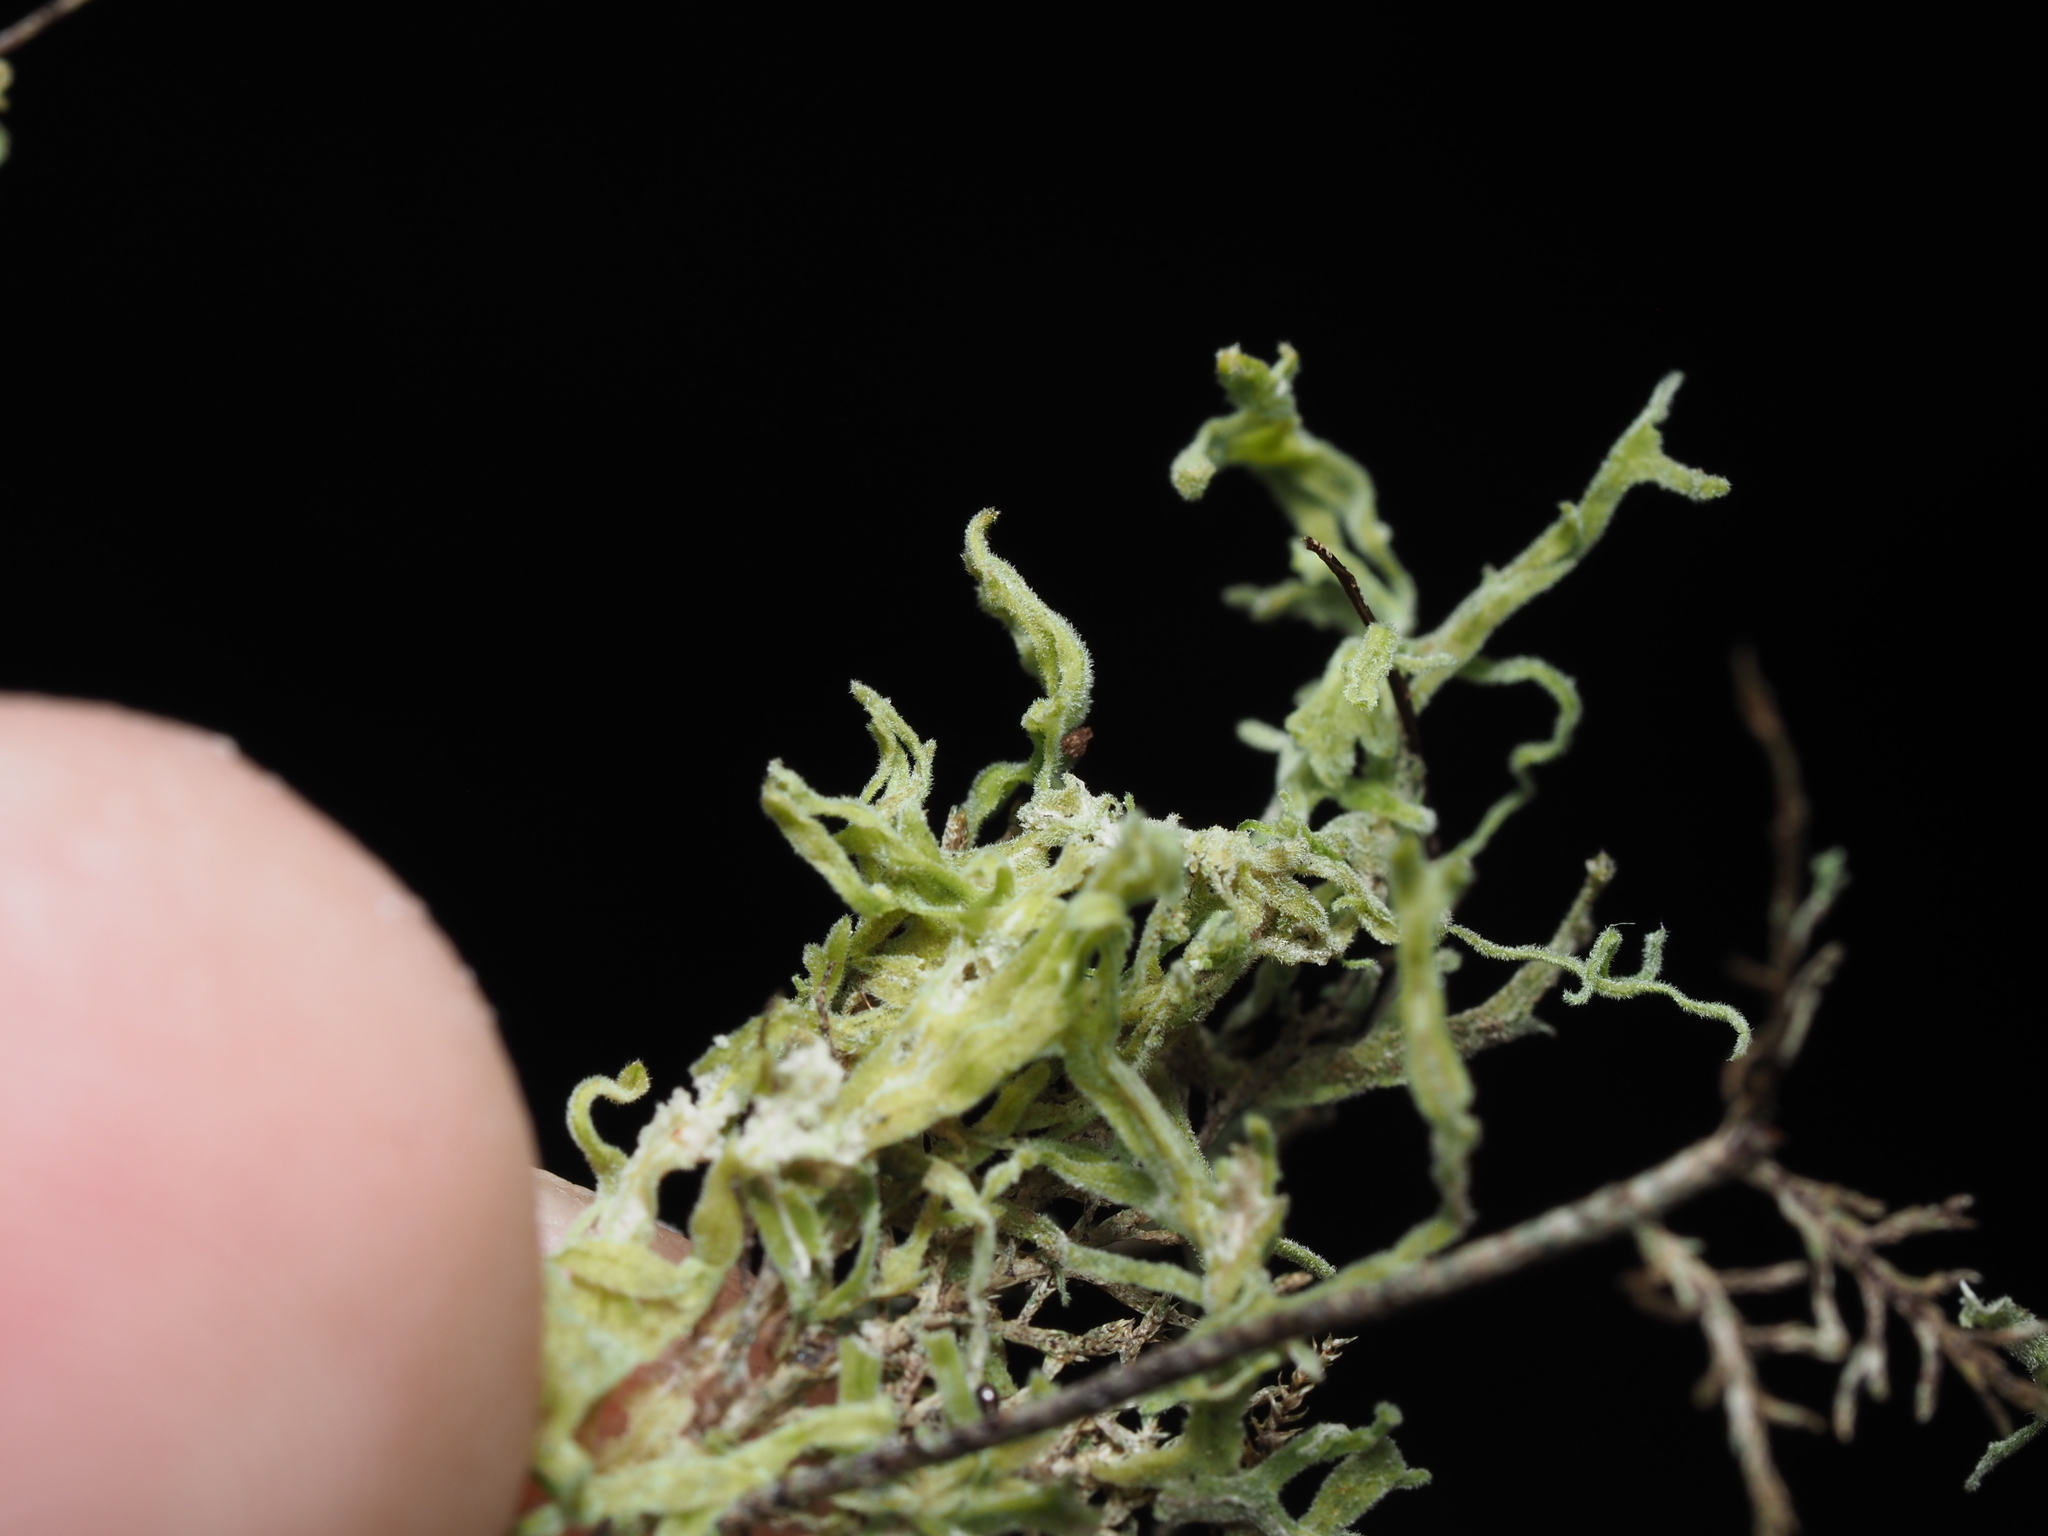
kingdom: Plantae
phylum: Marchantiophyta
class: Jungermanniopsida
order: Metzgeriales
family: Metzgeriaceae
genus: Metzgeria
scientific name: Metzgeria pubescens
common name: Downy veilwort
